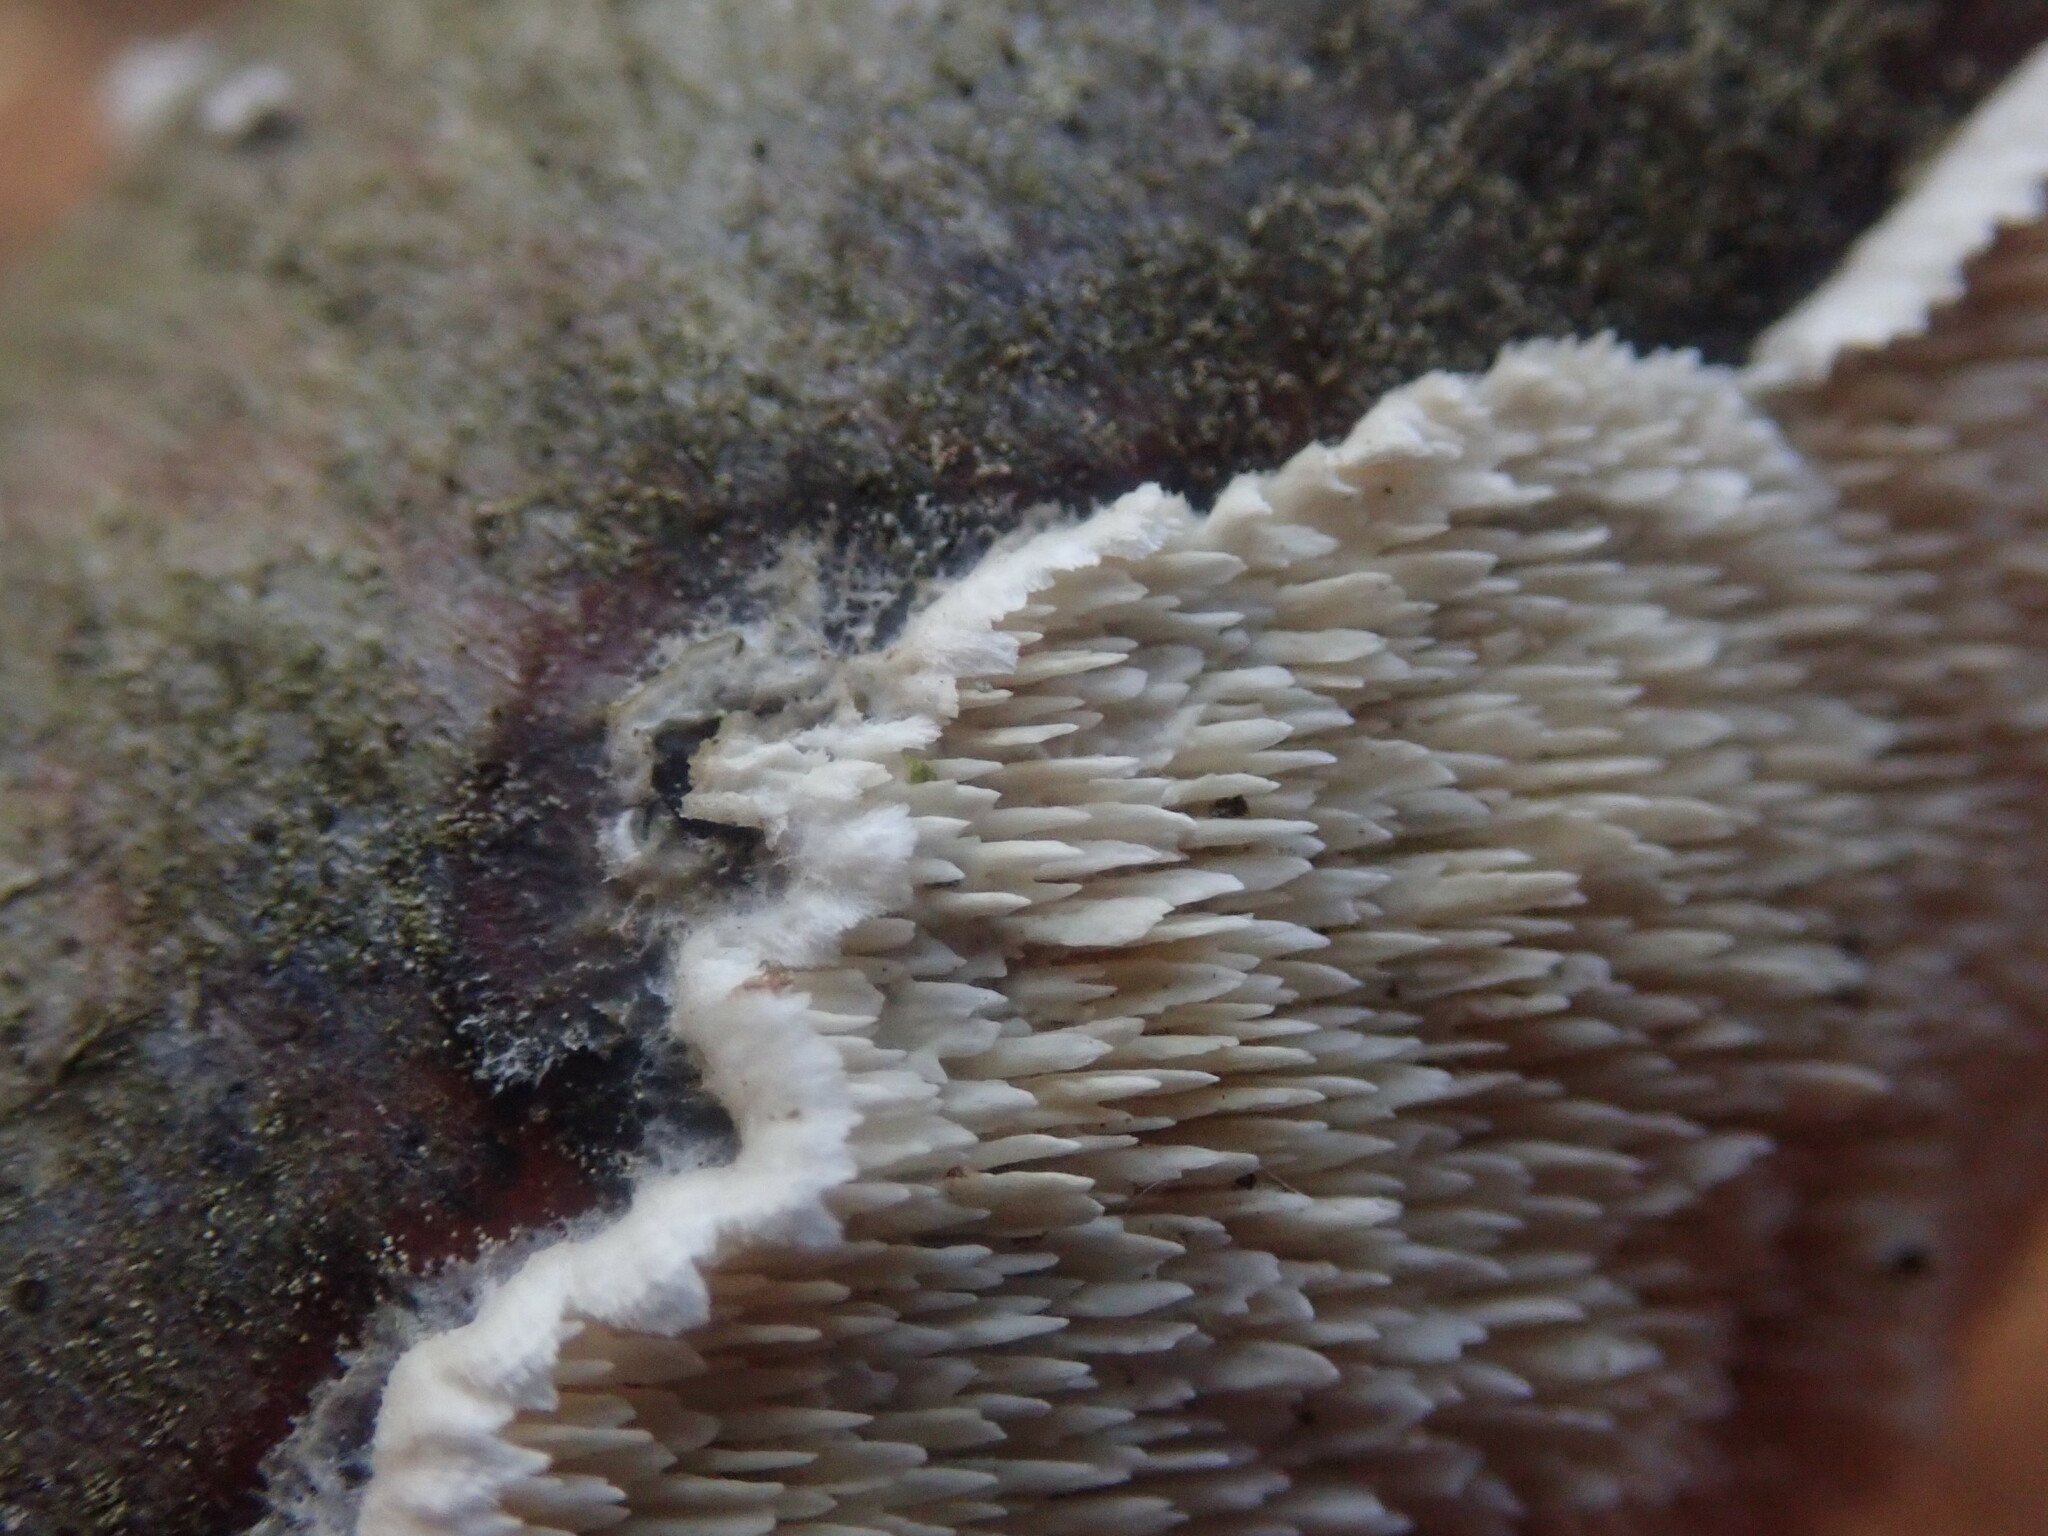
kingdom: Fungi
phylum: Basidiomycota
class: Agaricomycetes
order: Polyporales
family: Irpicaceae
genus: Irpex
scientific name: Irpex lacteus
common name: Milk-white toothed polypore
